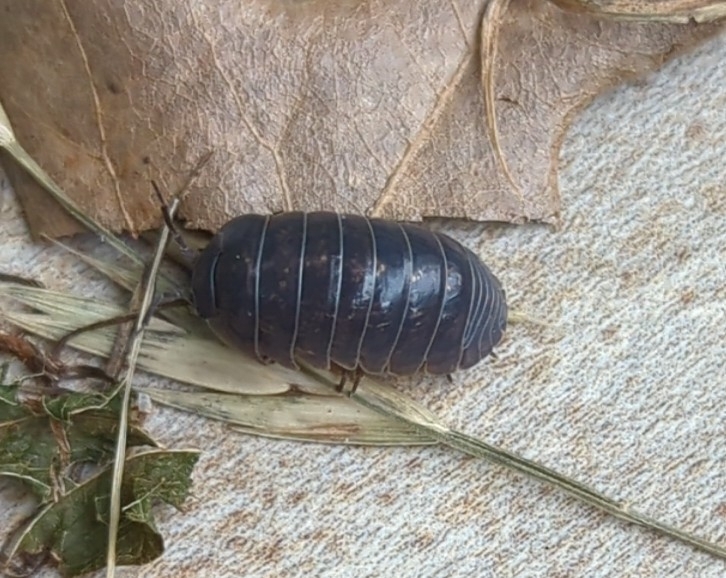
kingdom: Animalia
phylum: Arthropoda
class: Malacostraca
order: Isopoda
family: Armadillidiidae
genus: Armadillidium
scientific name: Armadillidium vulgare
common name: Common pill woodlouse
